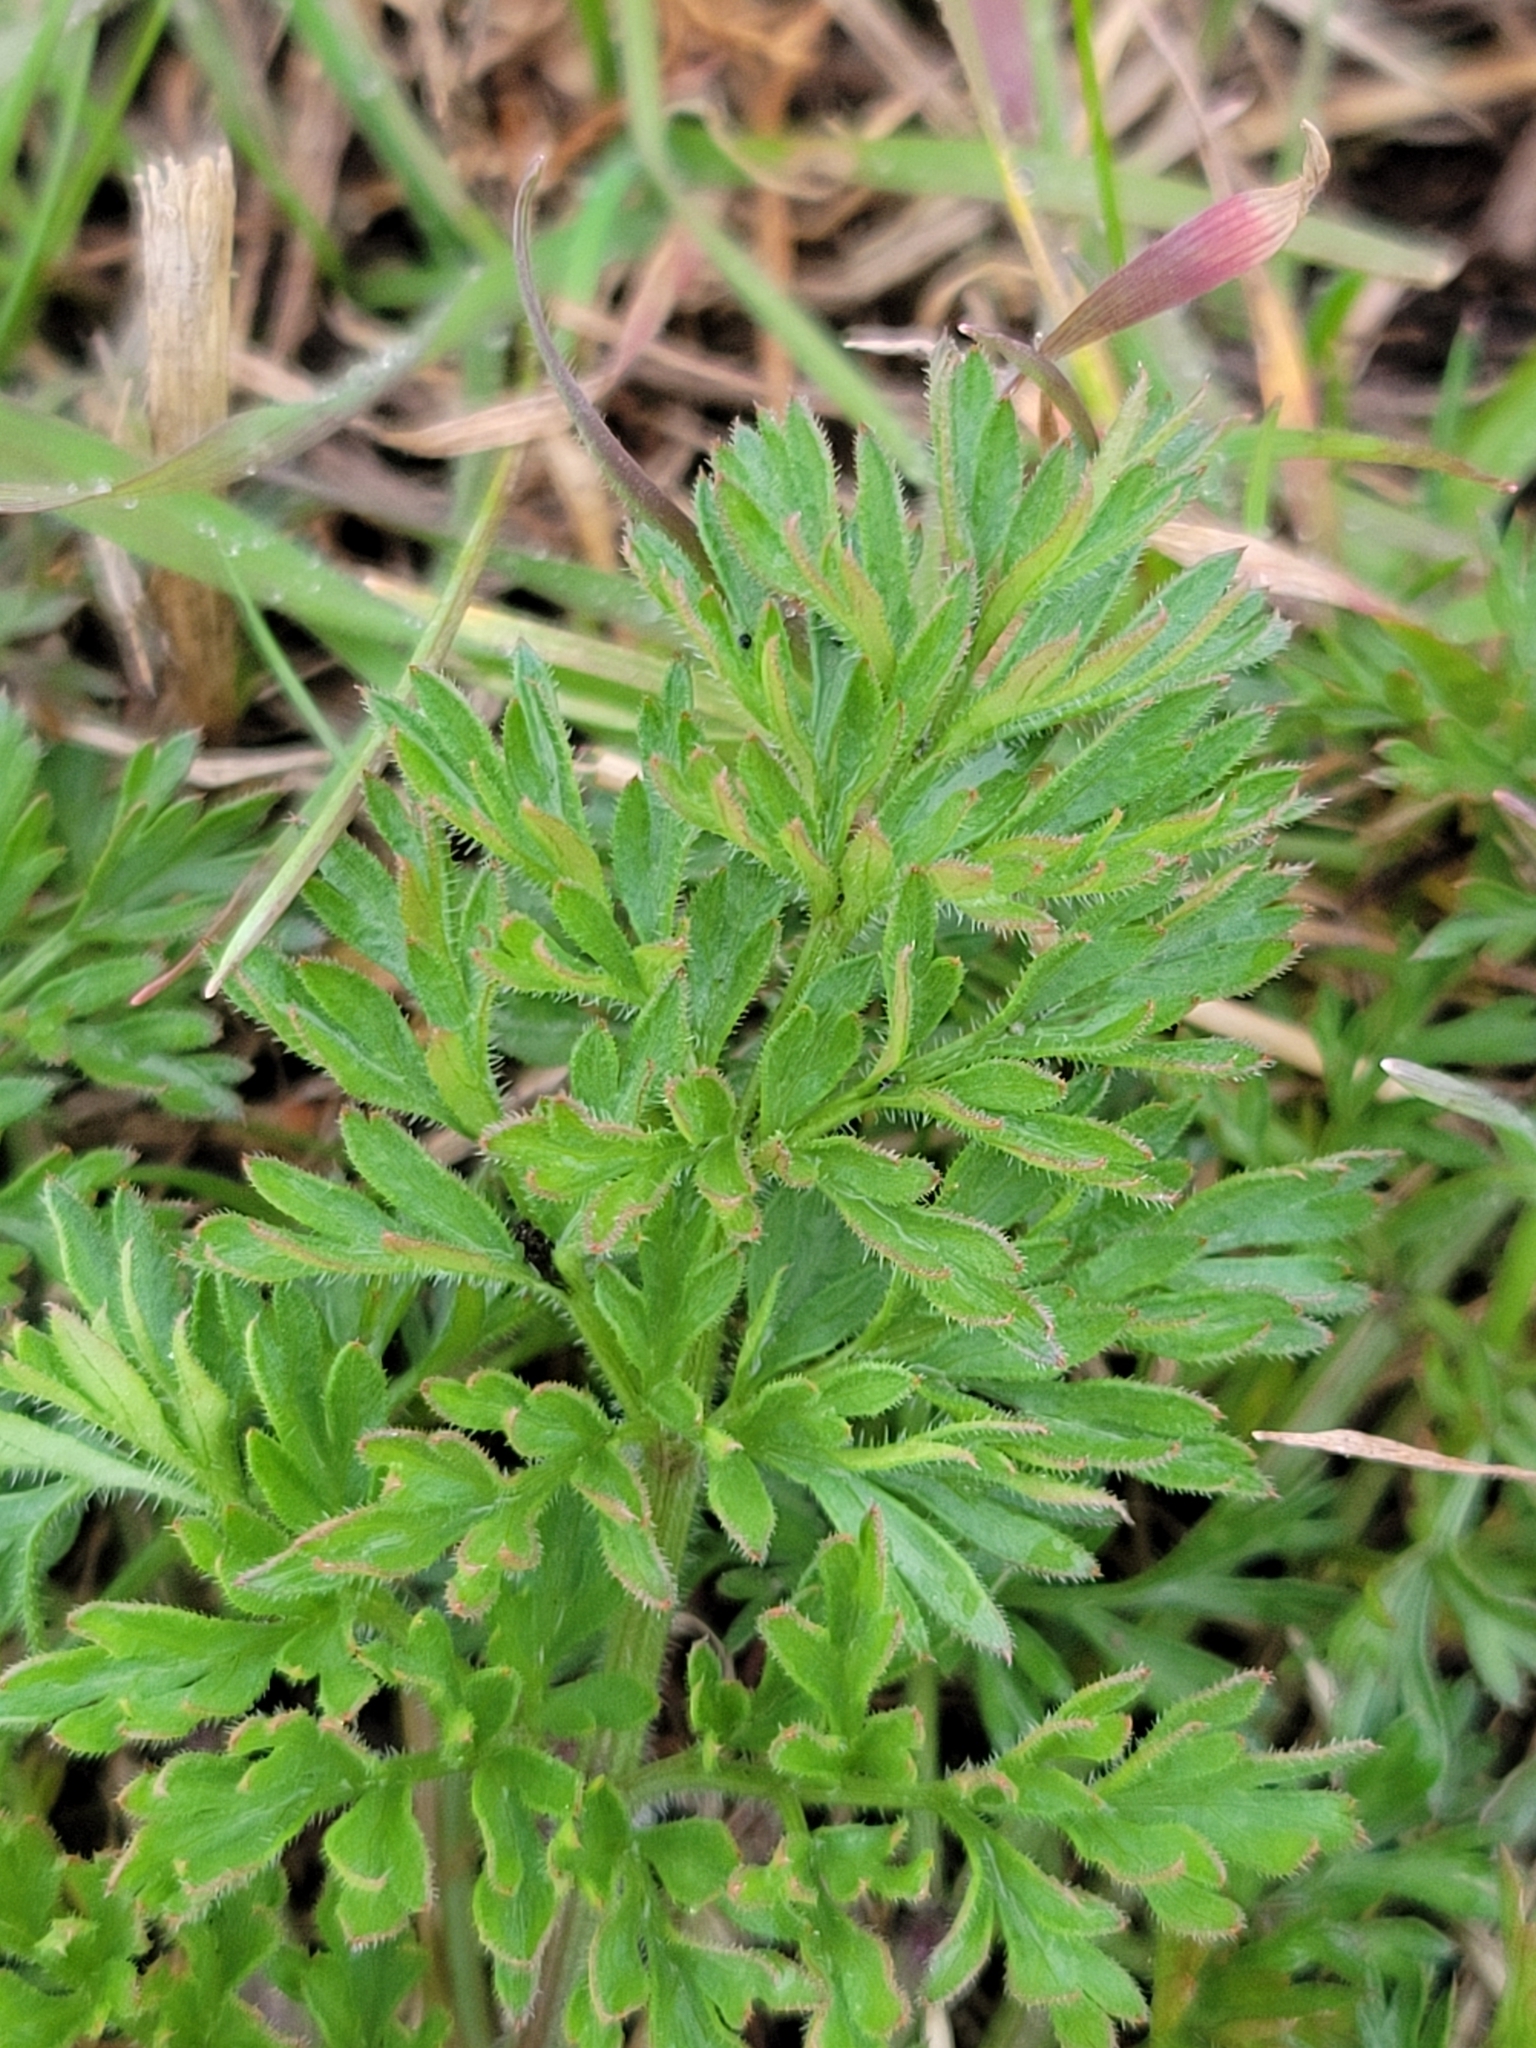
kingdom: Plantae
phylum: Tracheophyta
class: Magnoliopsida
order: Apiales
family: Apiaceae
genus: Daucus
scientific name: Daucus carota
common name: Wild carrot
